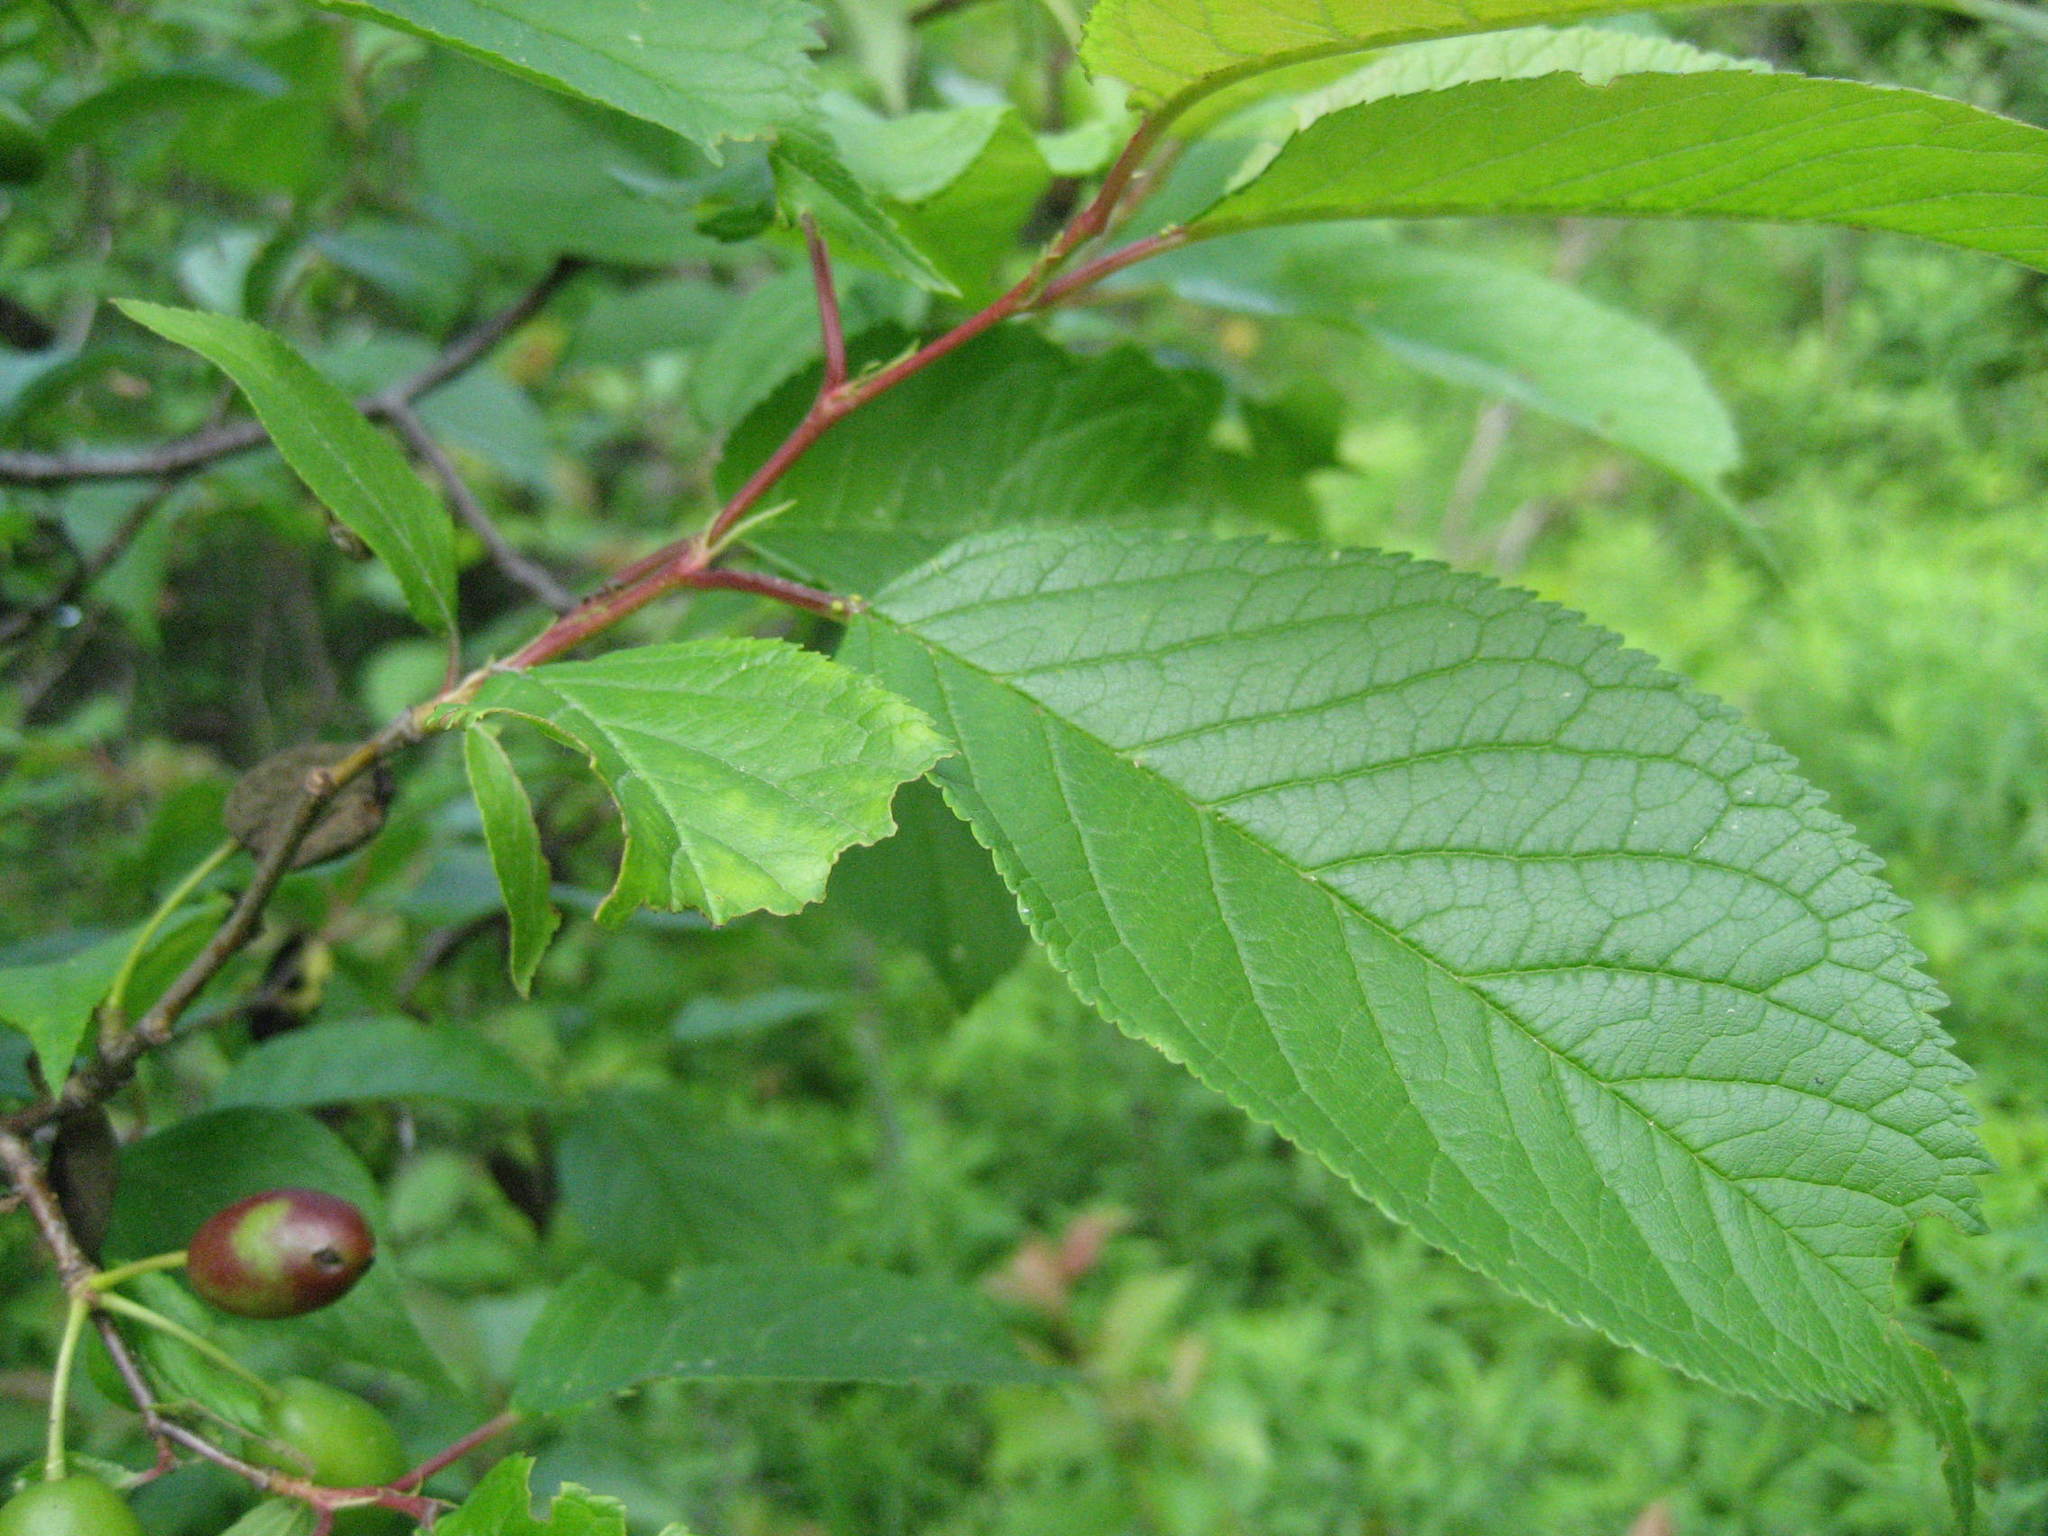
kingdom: Plantae
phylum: Tracheophyta
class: Magnoliopsida
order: Rosales
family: Rosaceae
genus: Prunus
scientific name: Prunus nigra
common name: Black plum
